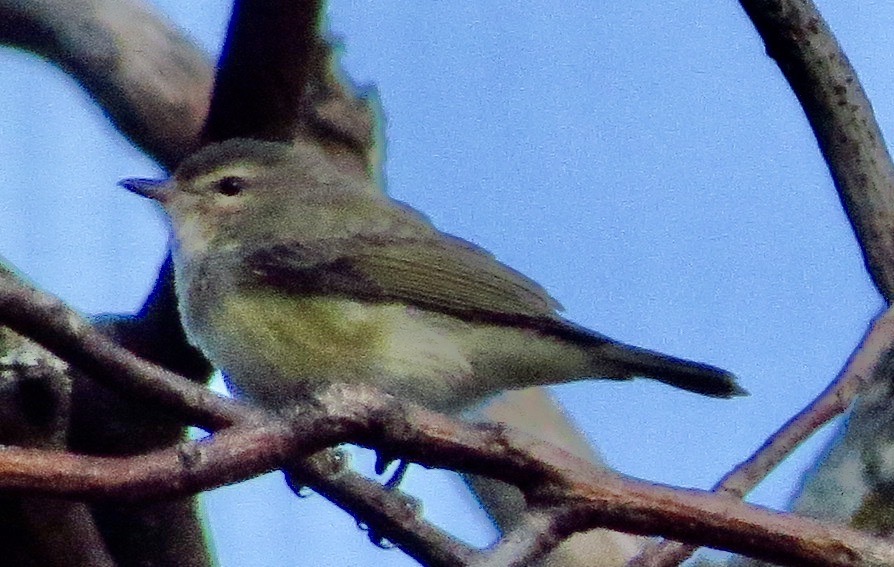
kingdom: Animalia
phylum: Chordata
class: Aves
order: Passeriformes
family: Vireonidae
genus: Vireo
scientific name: Vireo gilvus
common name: Warbling vireo
